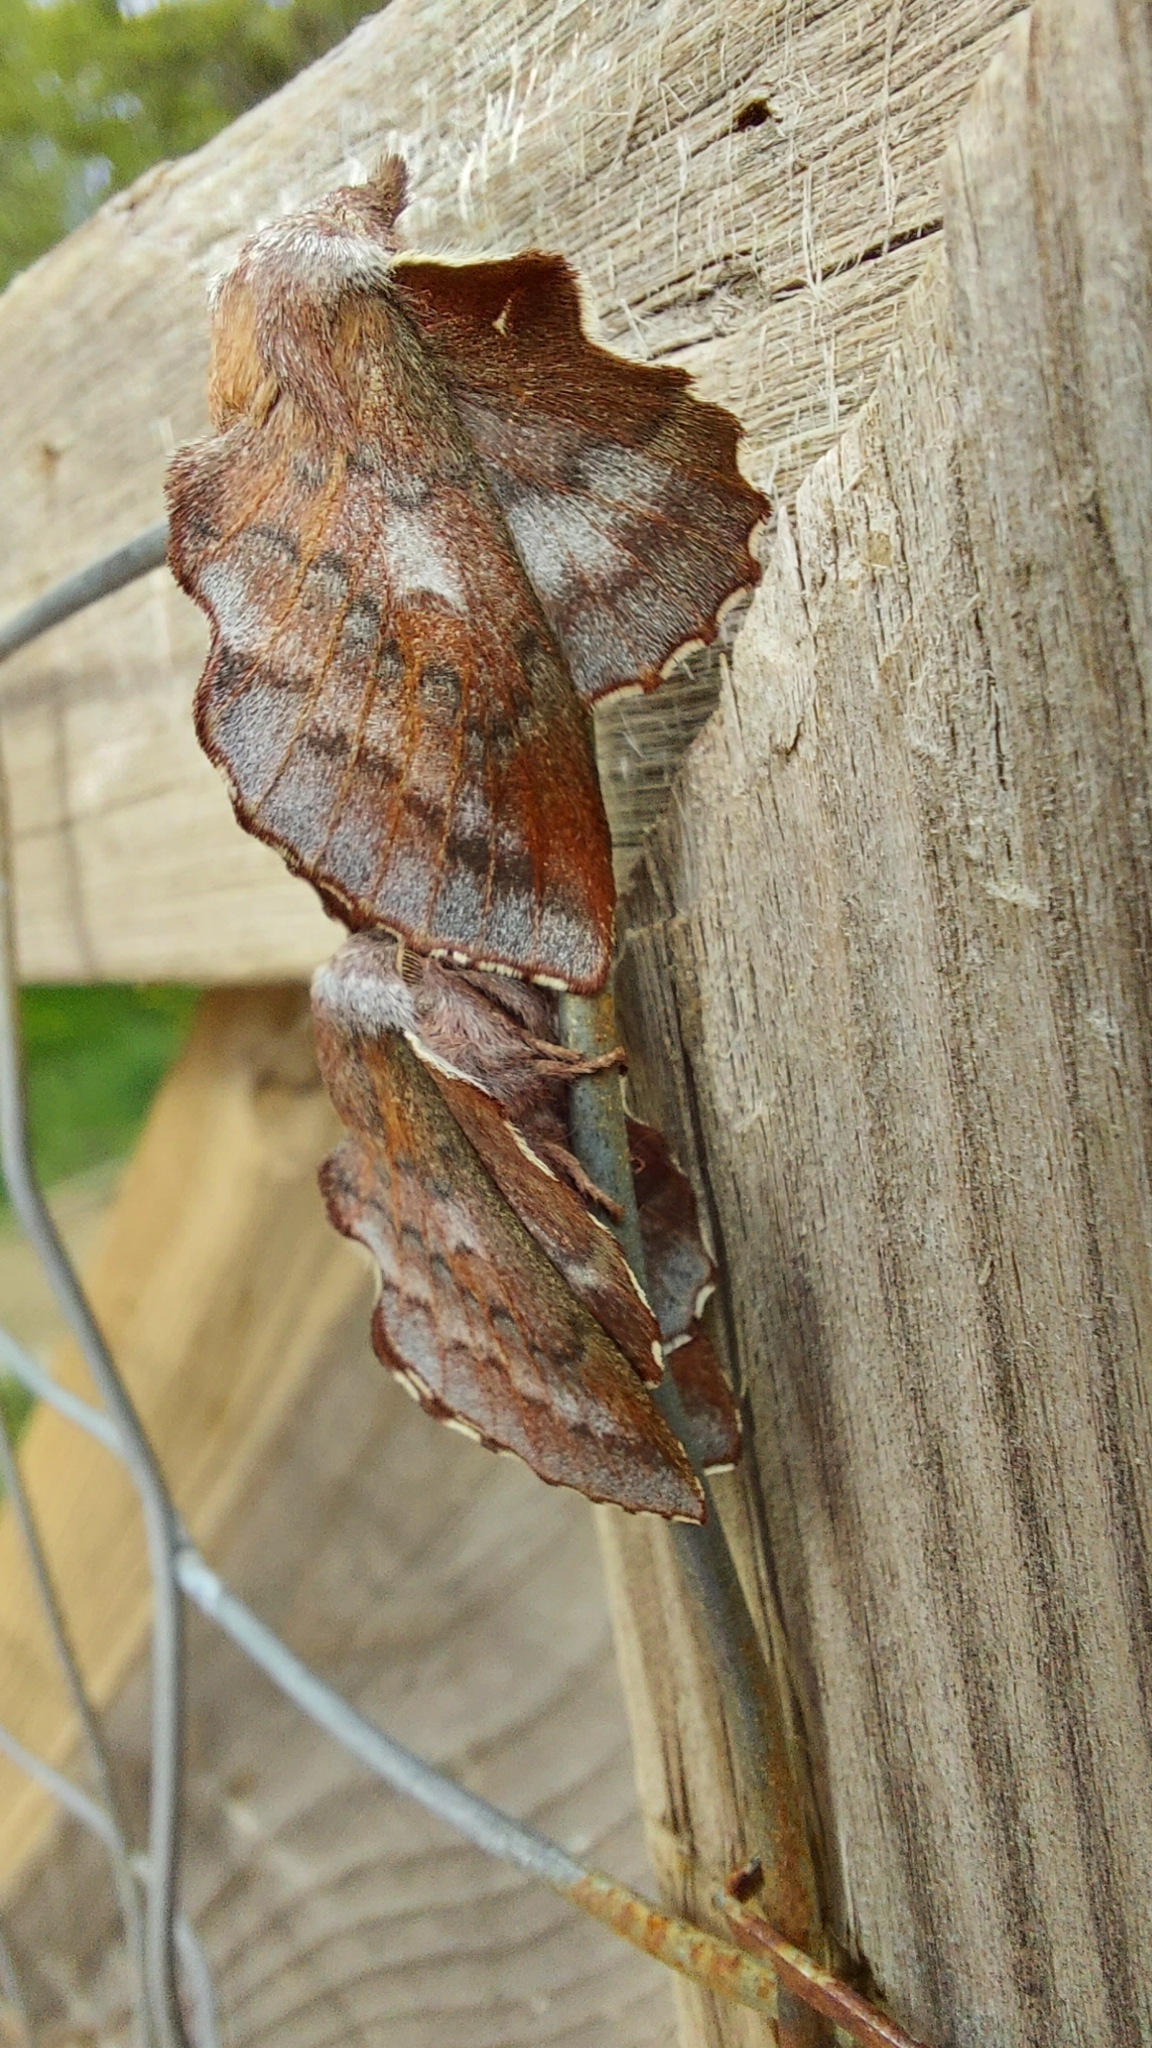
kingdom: Animalia
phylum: Arthropoda
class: Insecta
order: Lepidoptera
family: Lasiocampidae
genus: Phyllodesma
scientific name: Phyllodesma americana
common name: American lappet moth
